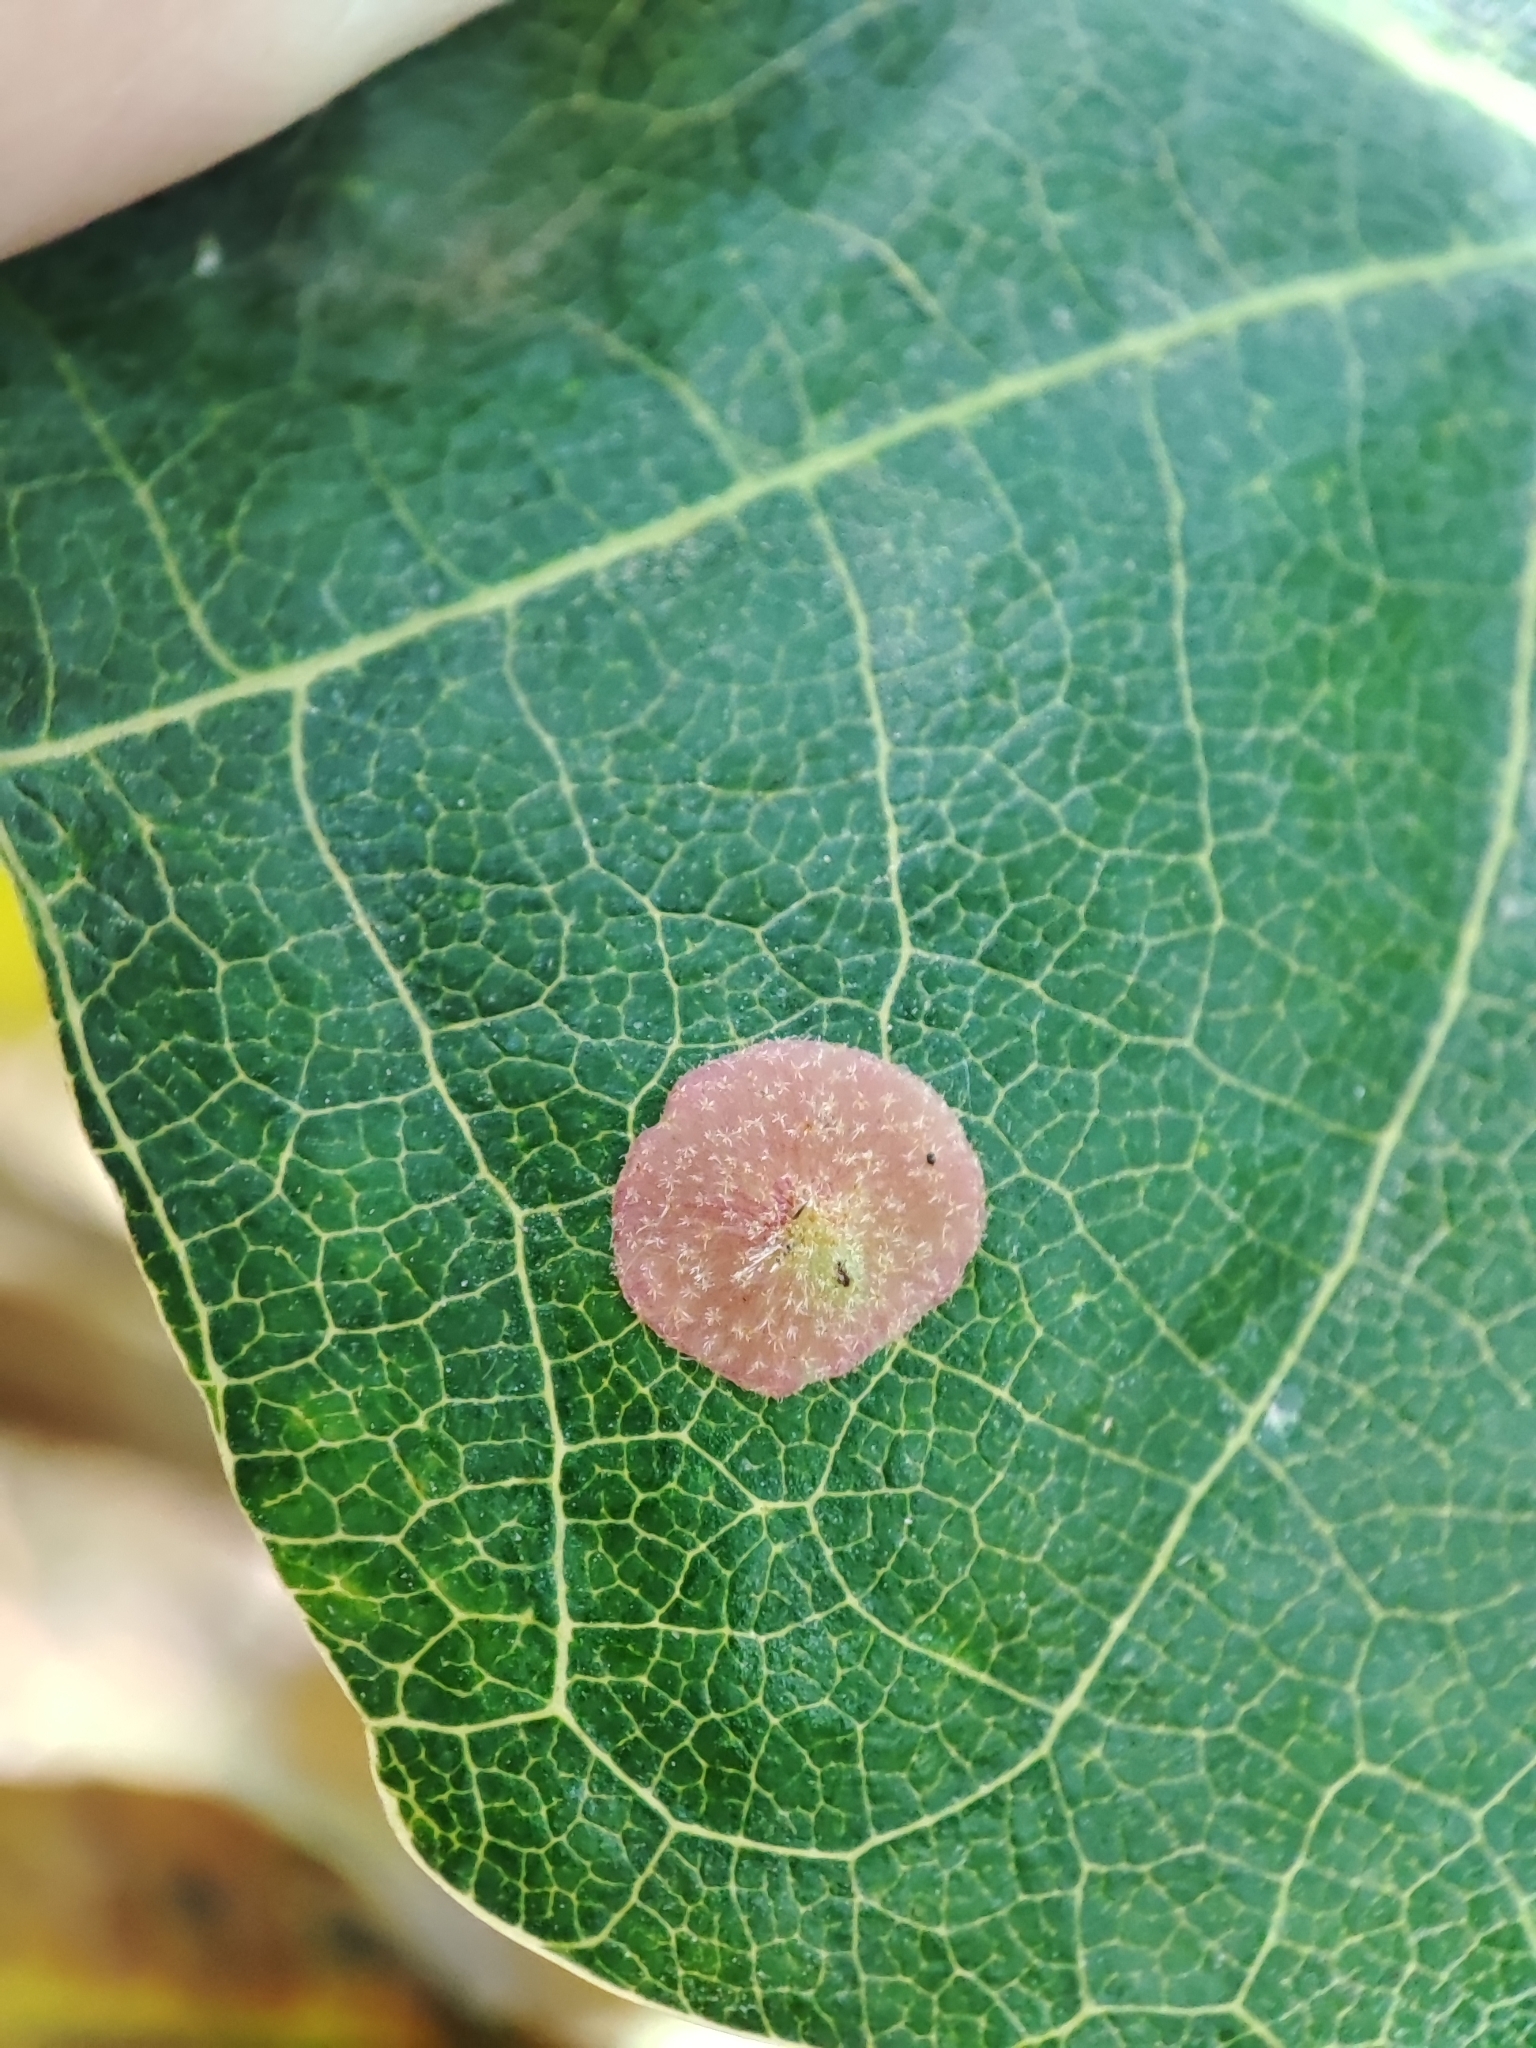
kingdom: Plantae
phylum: Tracheophyta
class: Magnoliopsida
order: Fagales
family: Fagaceae
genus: Quercus
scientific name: Quercus robur
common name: Pedunculate oak
